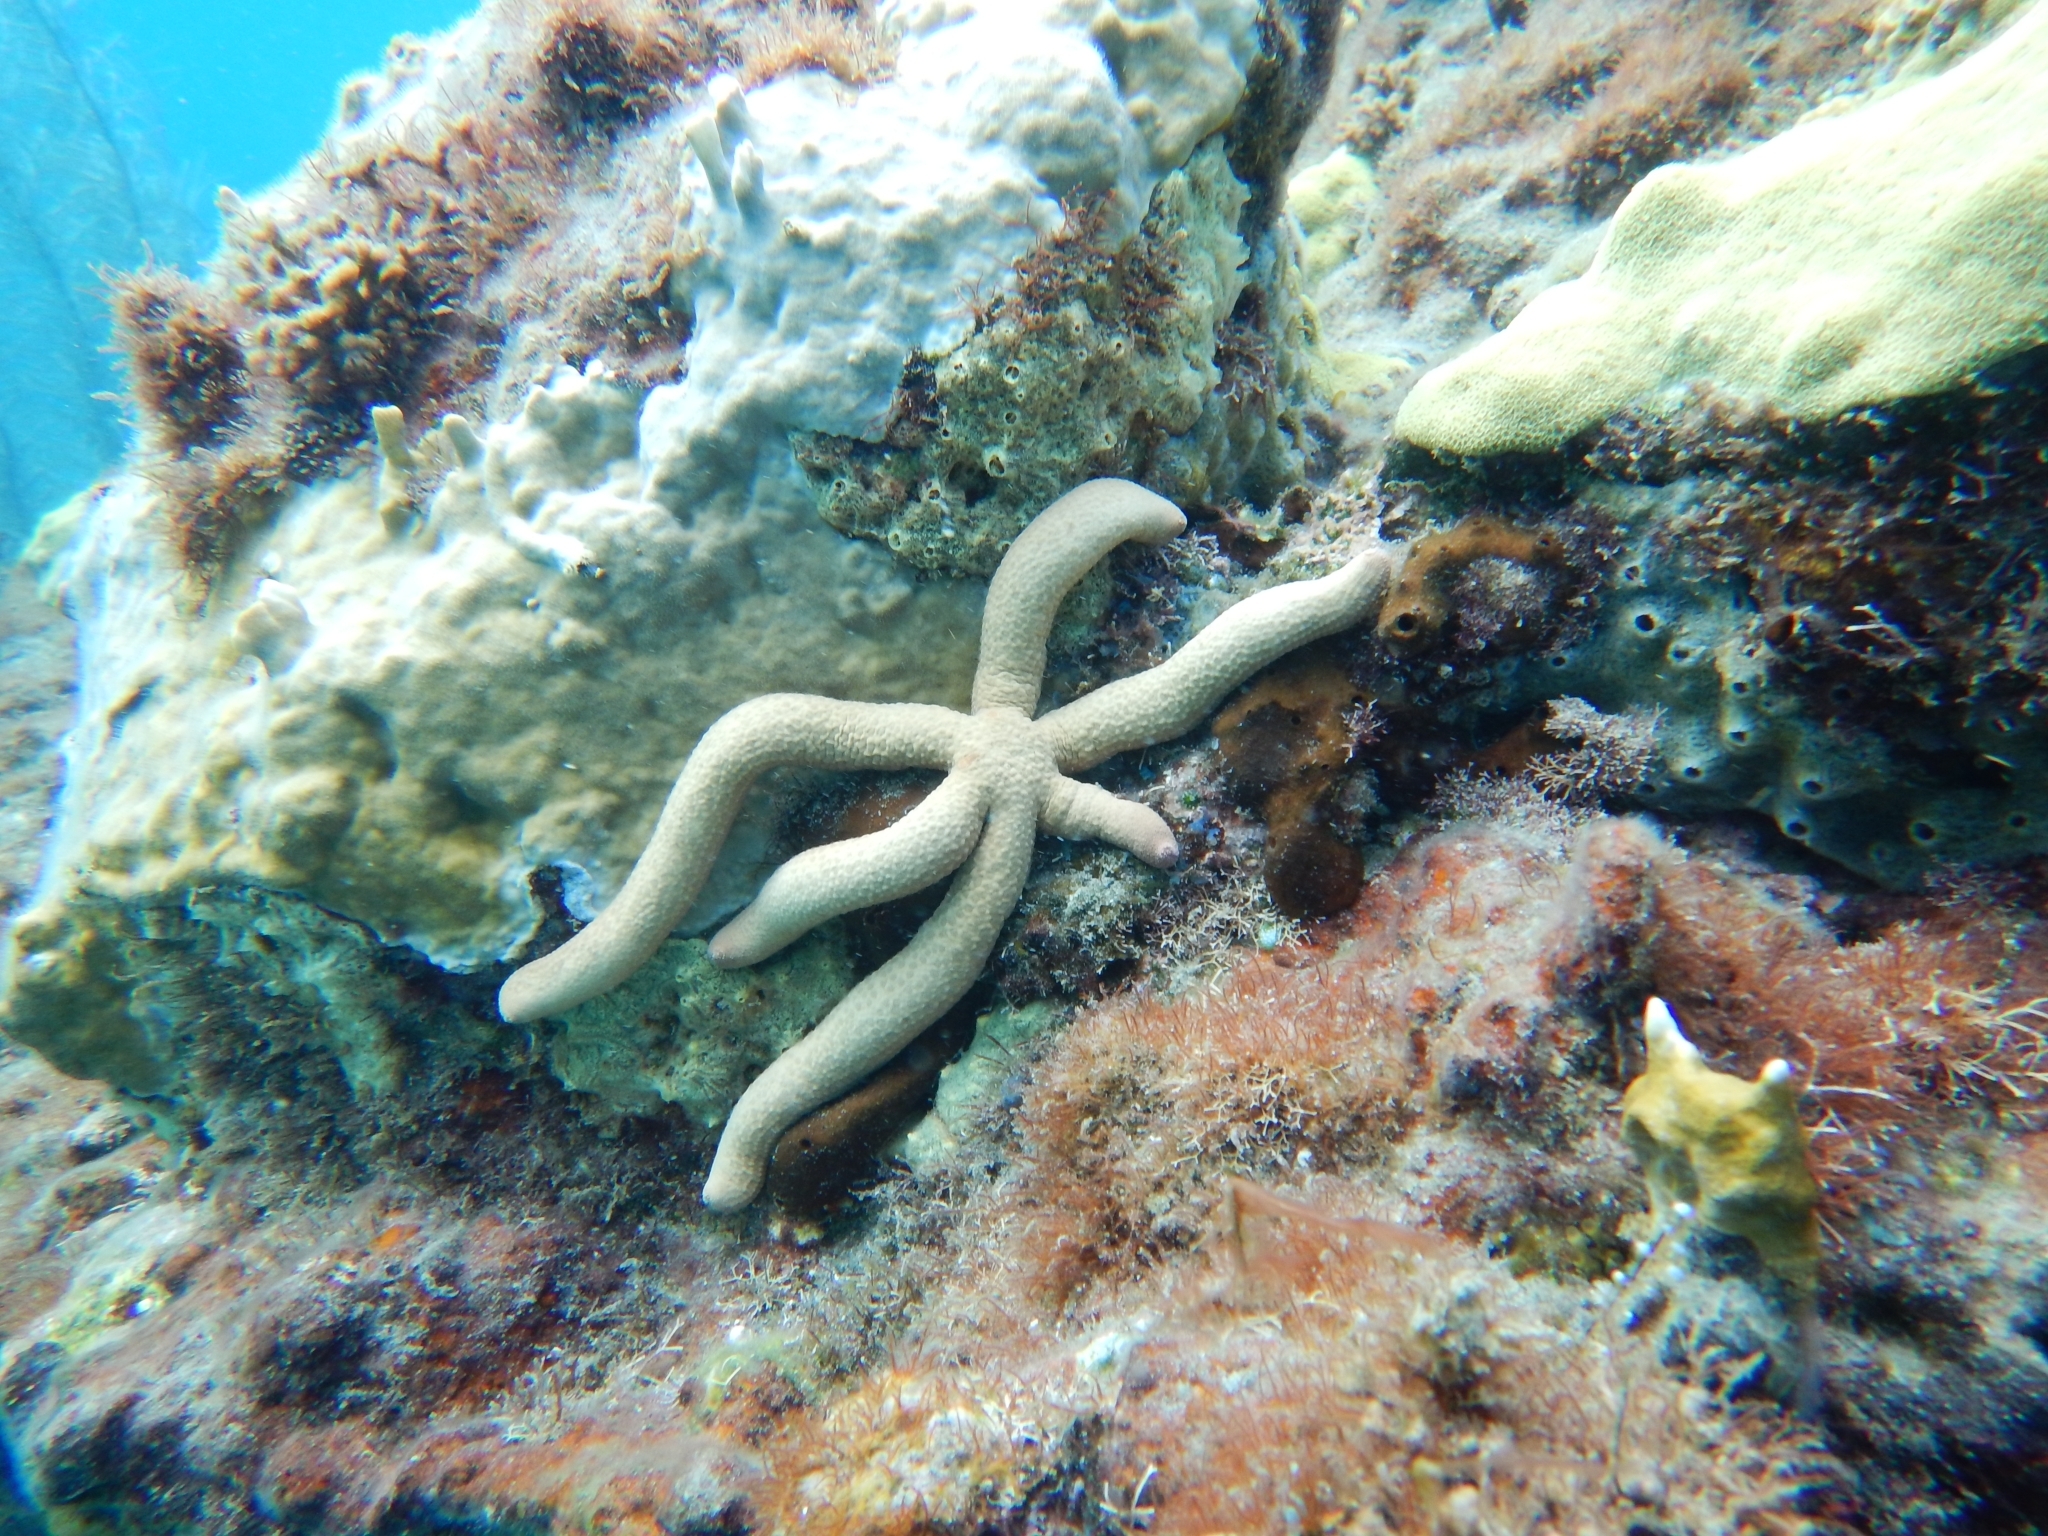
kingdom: Animalia
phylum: Echinodermata
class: Asteroidea
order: Valvatida
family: Ophidiasteridae
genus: Linckia
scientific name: Linckia guildingi
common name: Common comet star
